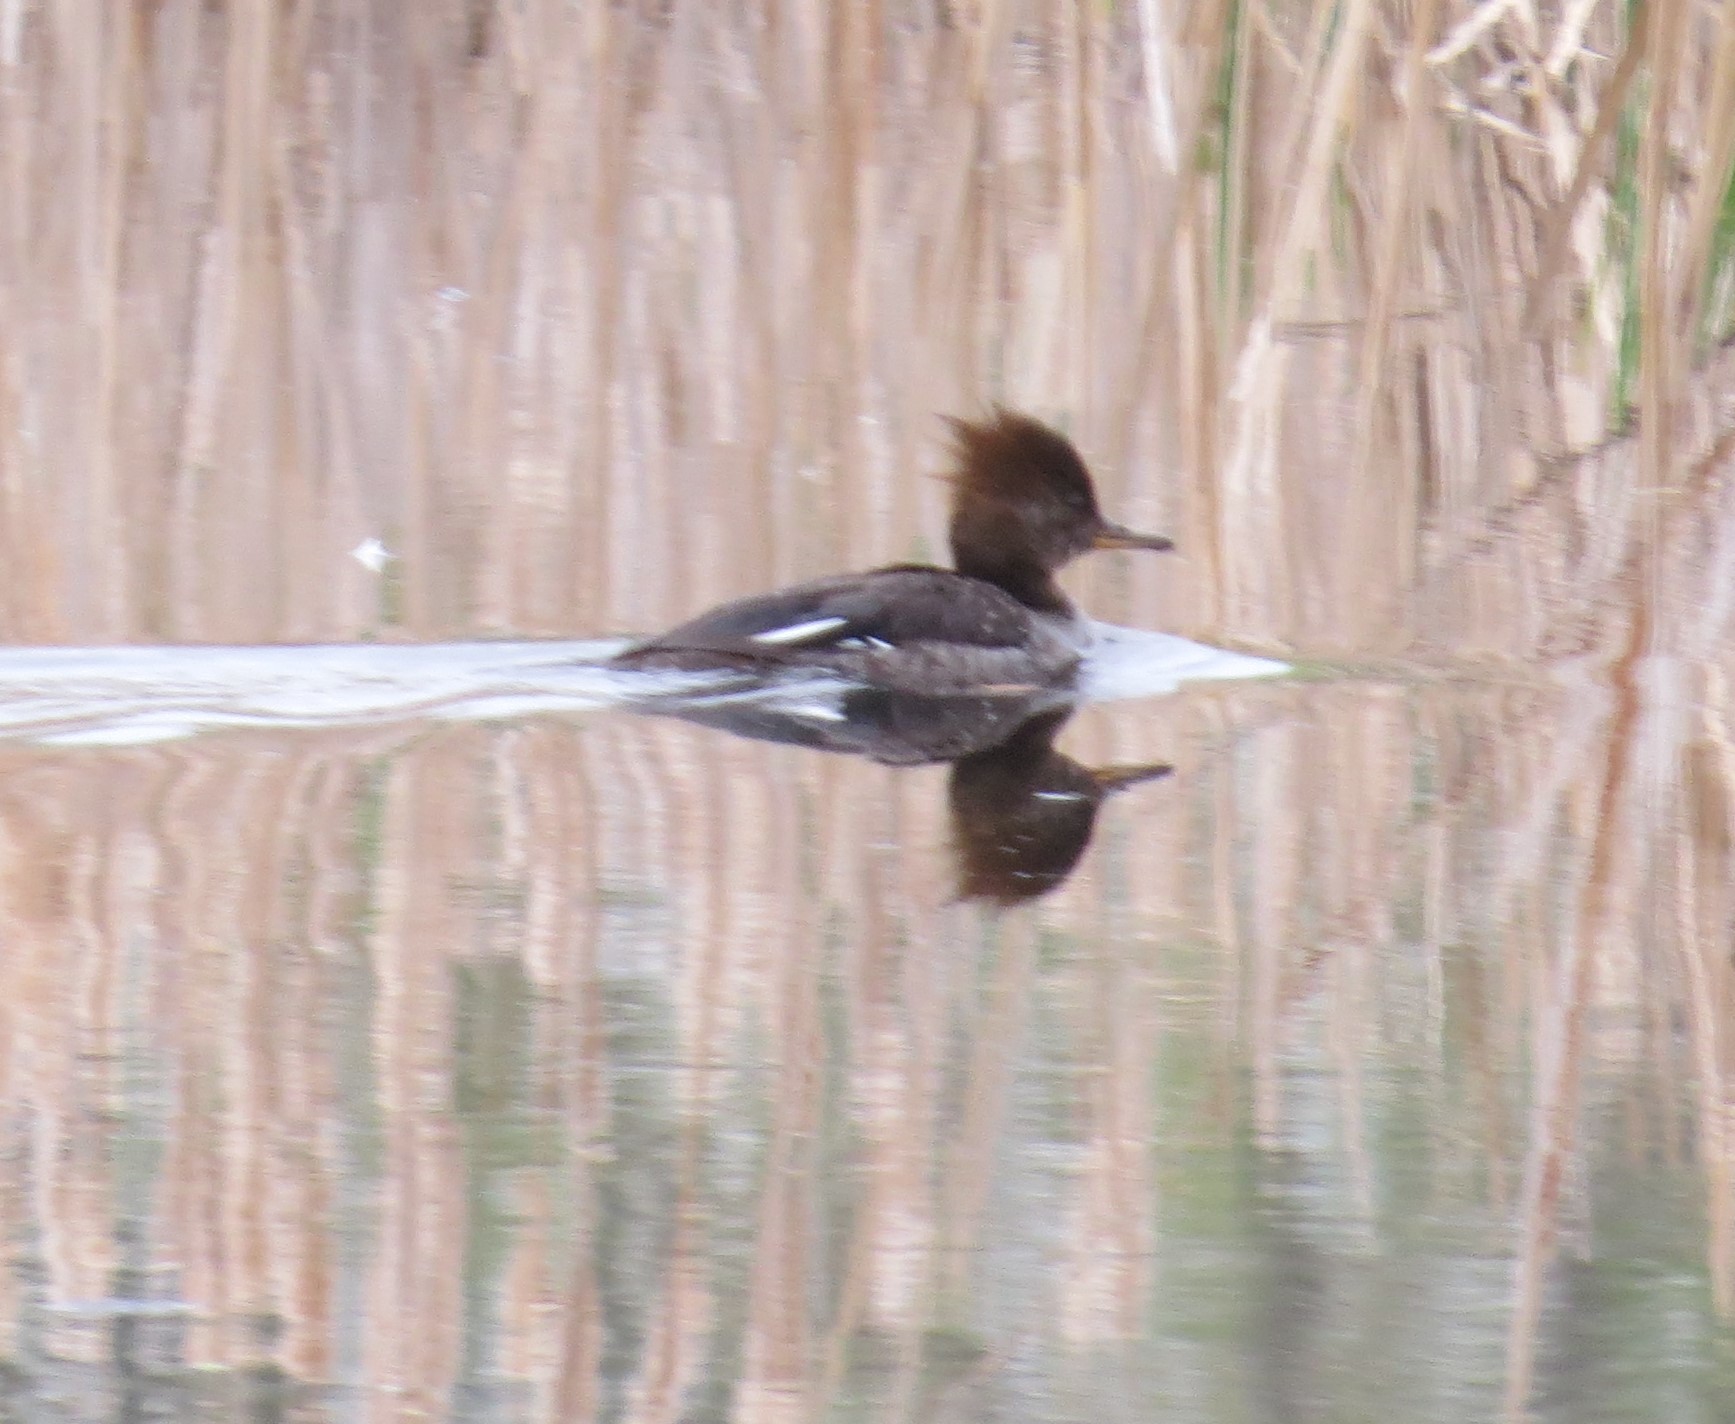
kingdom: Animalia
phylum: Chordata
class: Aves
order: Anseriformes
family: Anatidae
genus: Lophodytes
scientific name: Lophodytes cucullatus
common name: Hooded merganser
